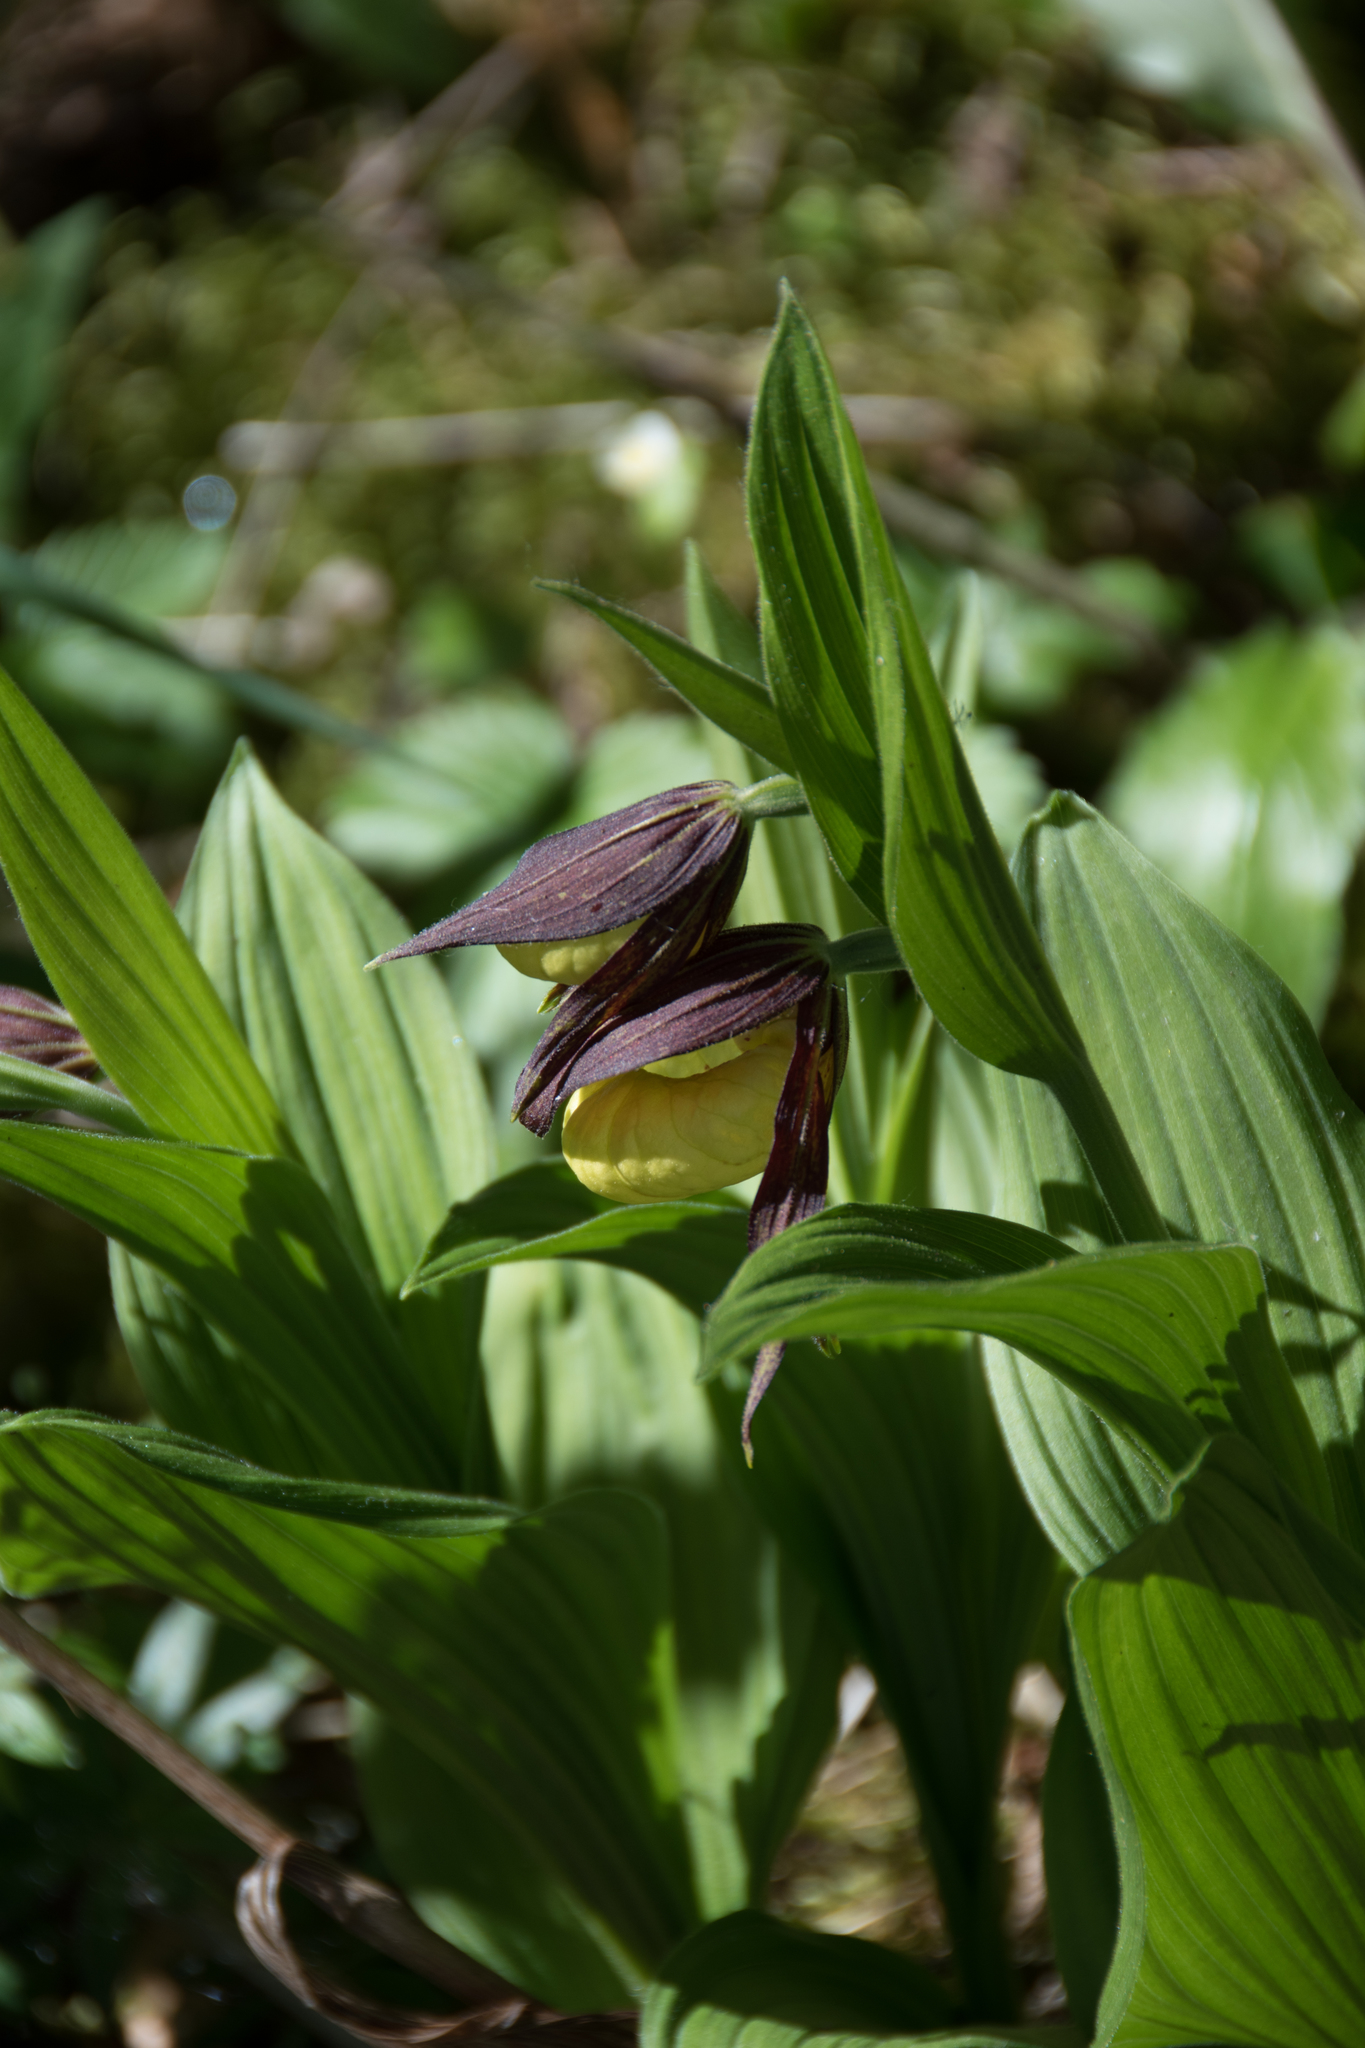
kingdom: Plantae
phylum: Tracheophyta
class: Liliopsida
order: Asparagales
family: Orchidaceae
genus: Cypripedium
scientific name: Cypripedium calceolus
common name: Lady's-slipper
